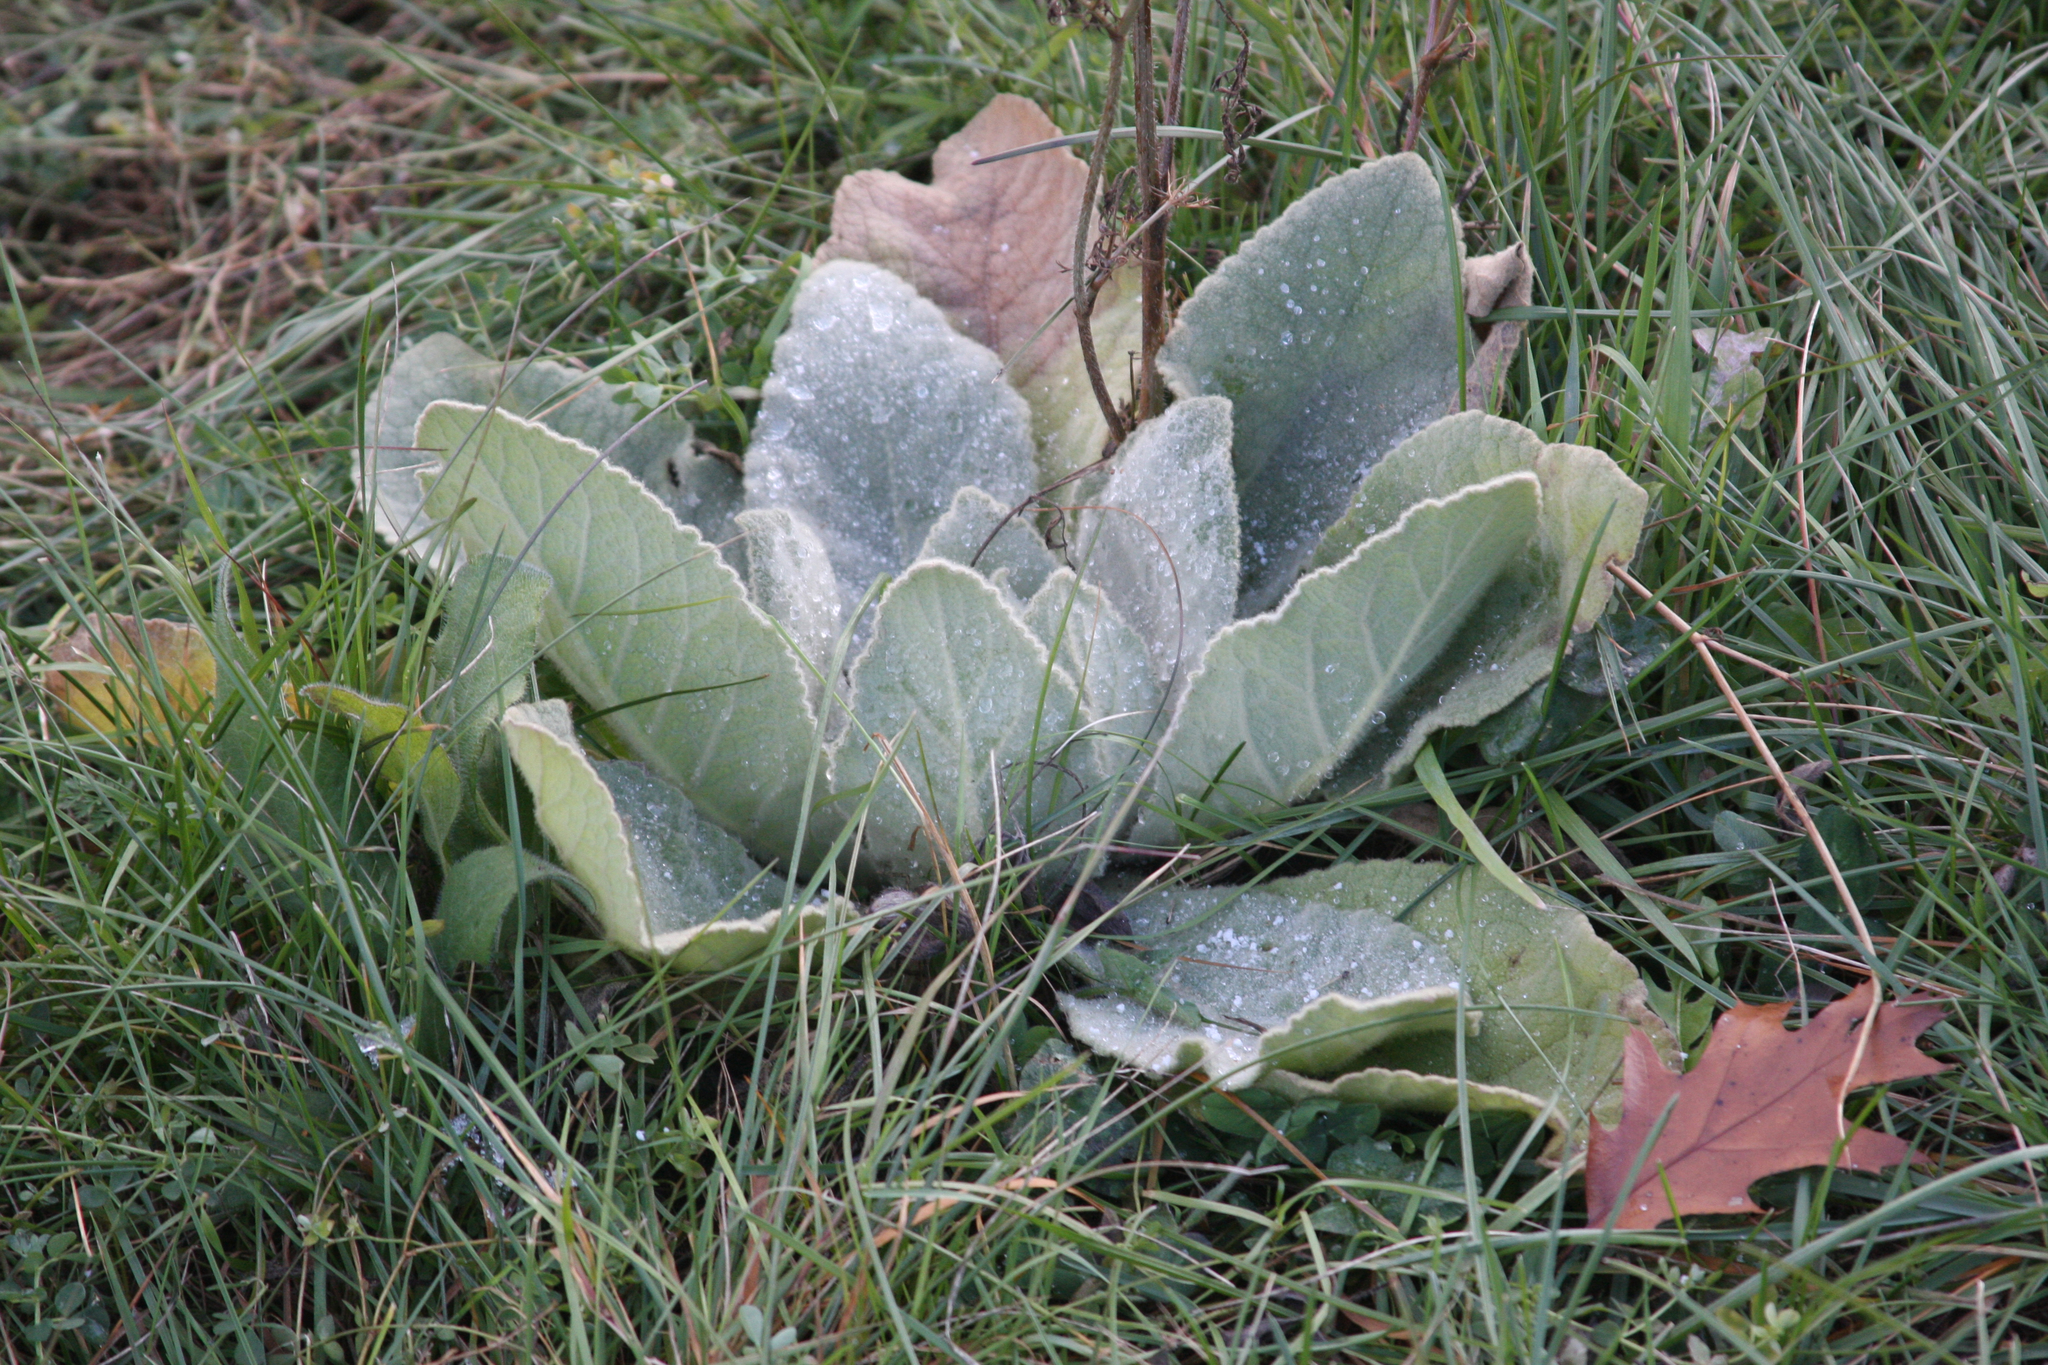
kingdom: Plantae
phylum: Tracheophyta
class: Magnoliopsida
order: Lamiales
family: Scrophulariaceae
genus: Verbascum
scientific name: Verbascum thapsus
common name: Common mullein
